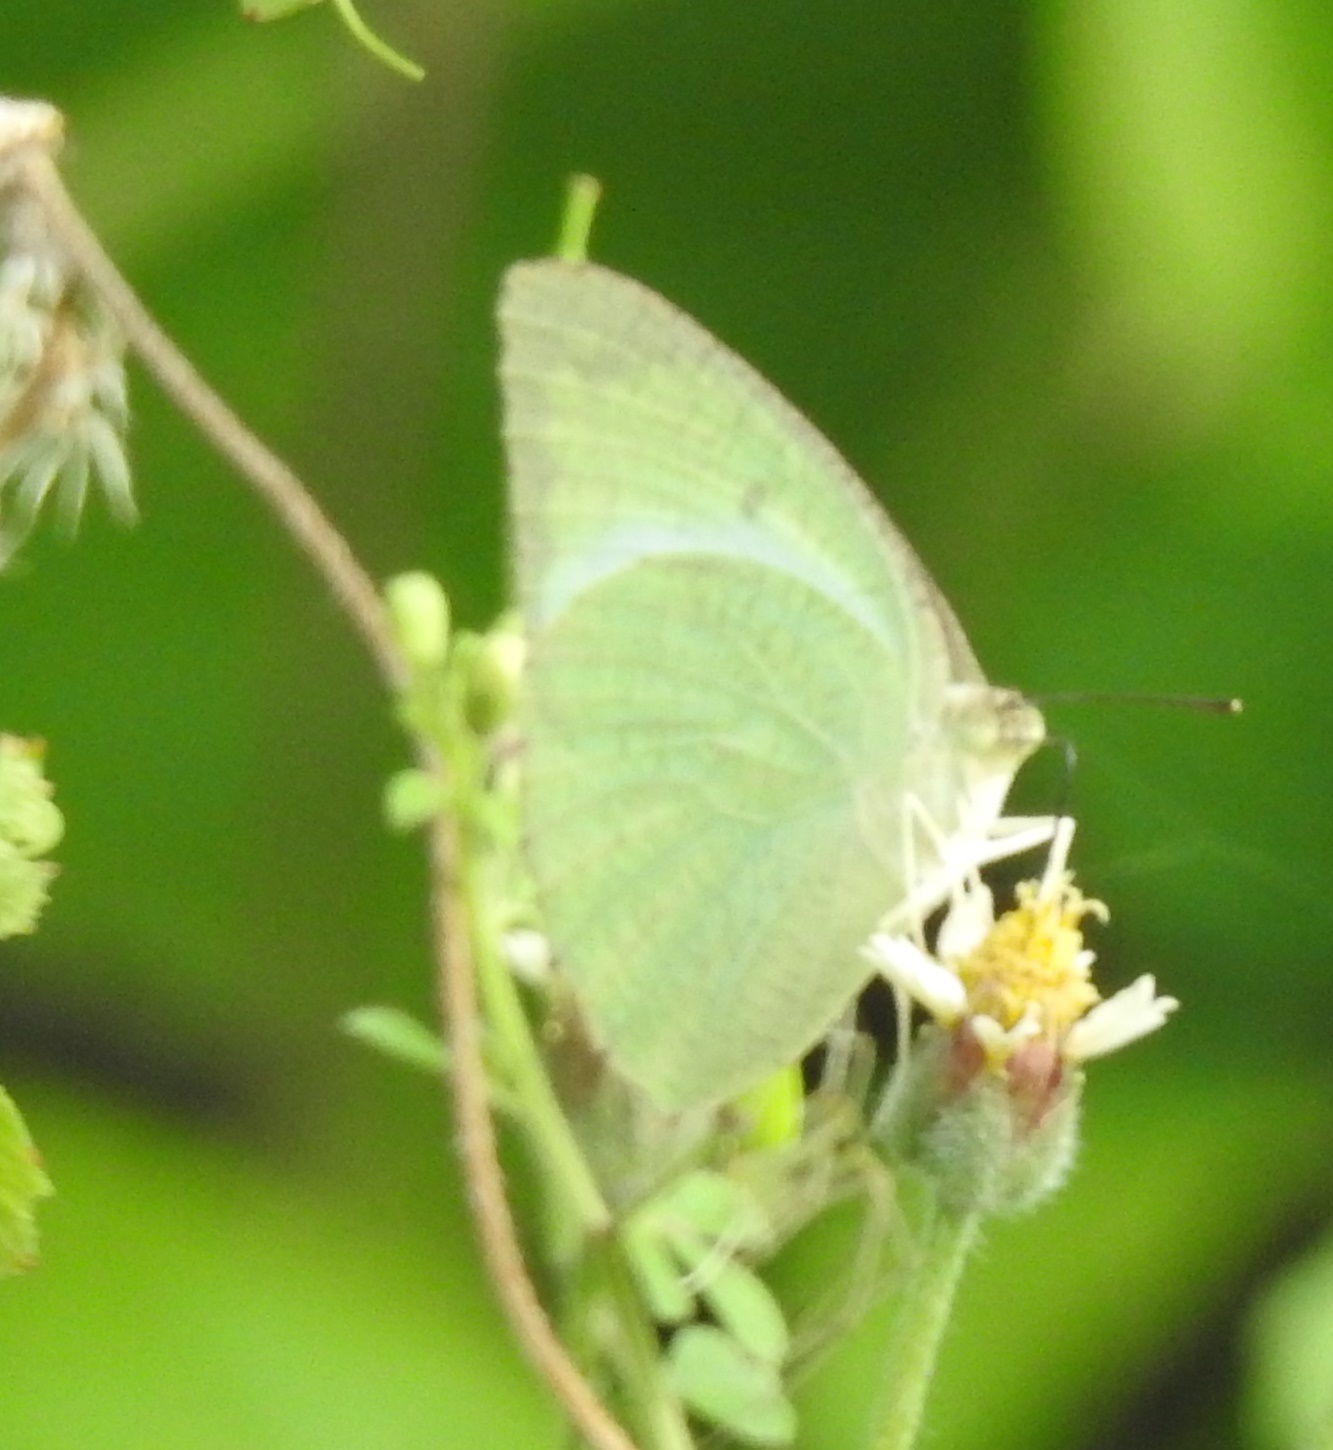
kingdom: Animalia
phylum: Arthropoda
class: Insecta
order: Lepidoptera
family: Pieridae
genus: Catopsilia
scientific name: Catopsilia pyranthe
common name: Mottled emigrant
